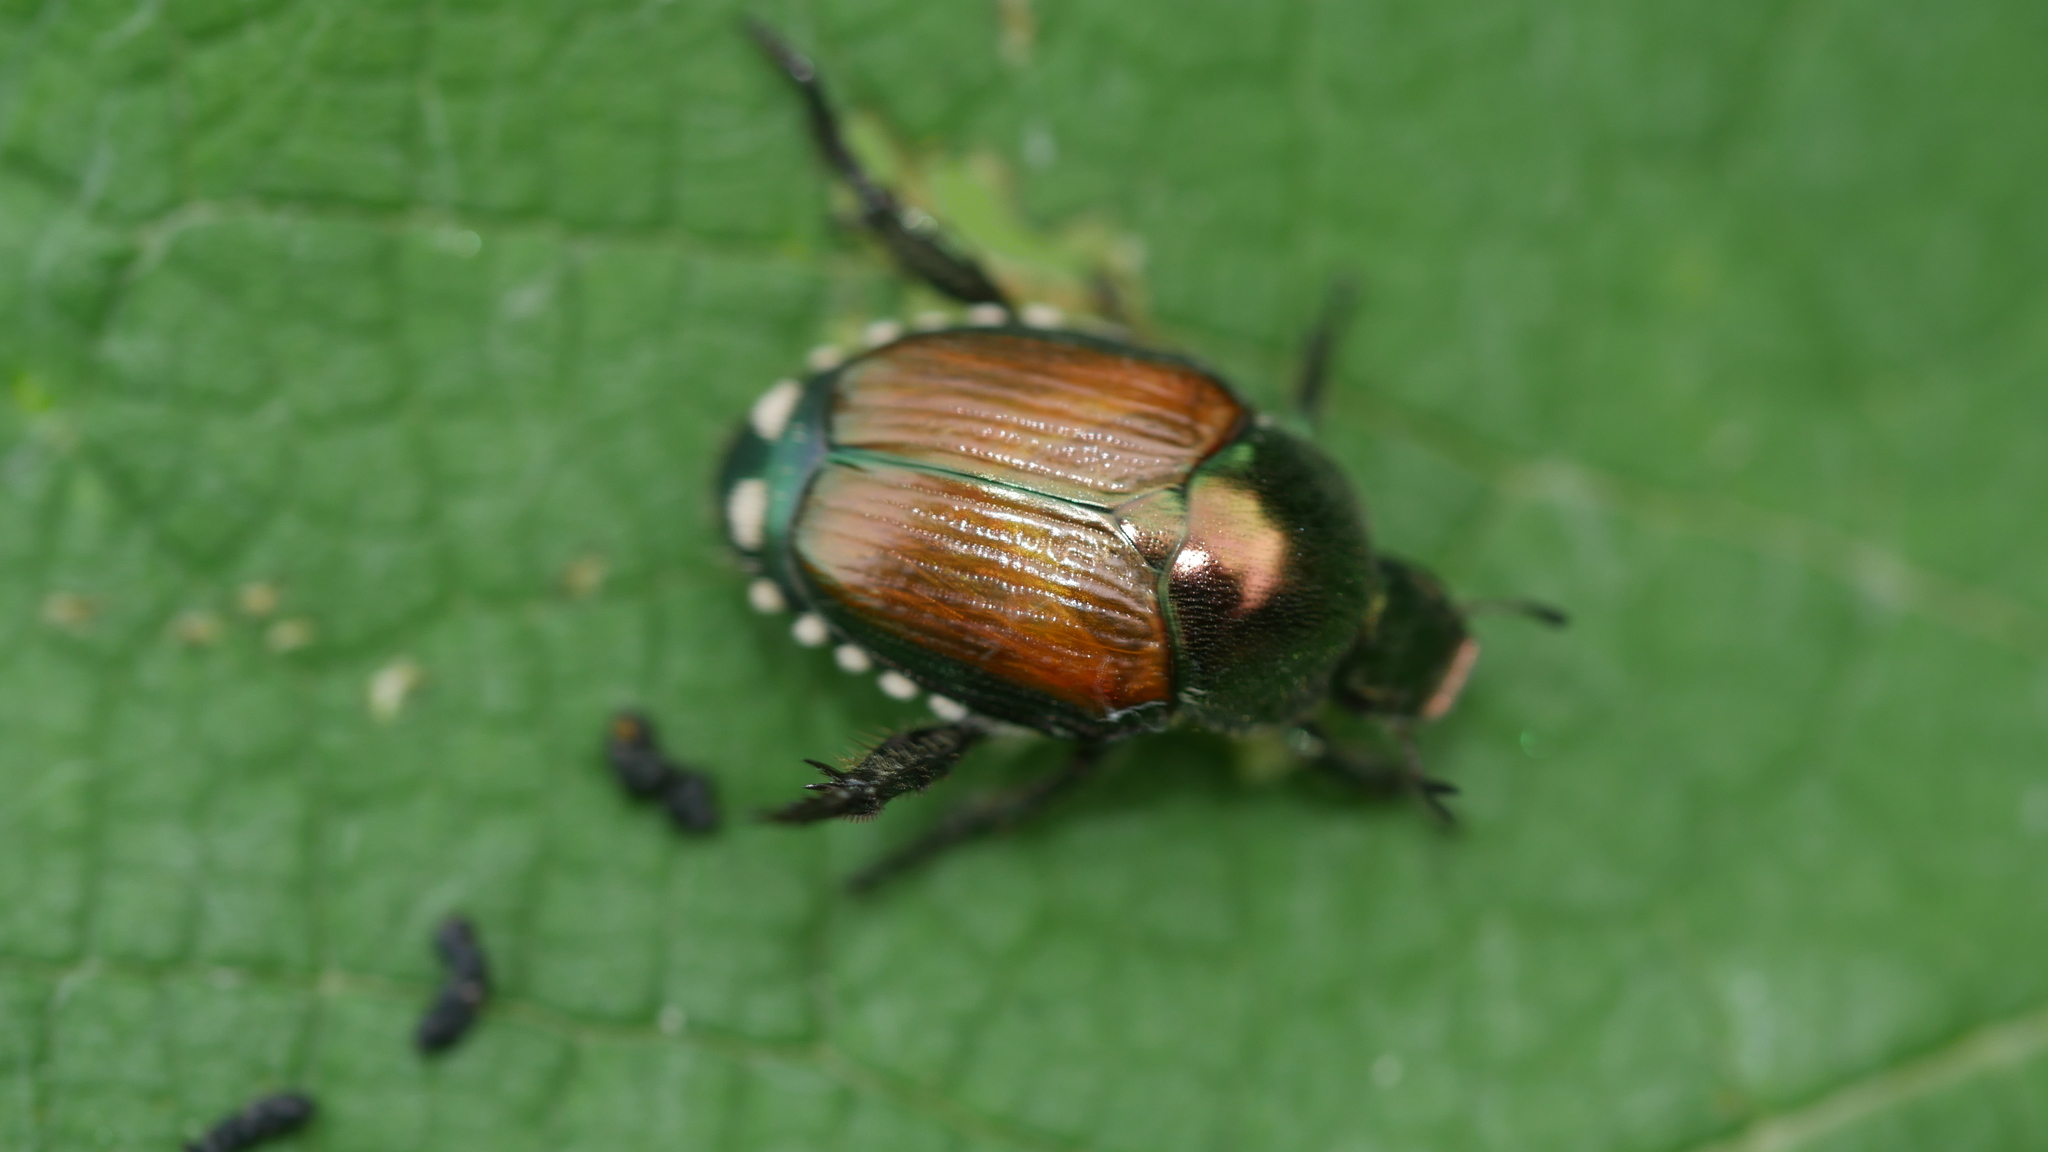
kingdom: Animalia
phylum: Arthropoda
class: Insecta
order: Coleoptera
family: Scarabaeidae
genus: Popillia
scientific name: Popillia japonica
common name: Japanese beetle
